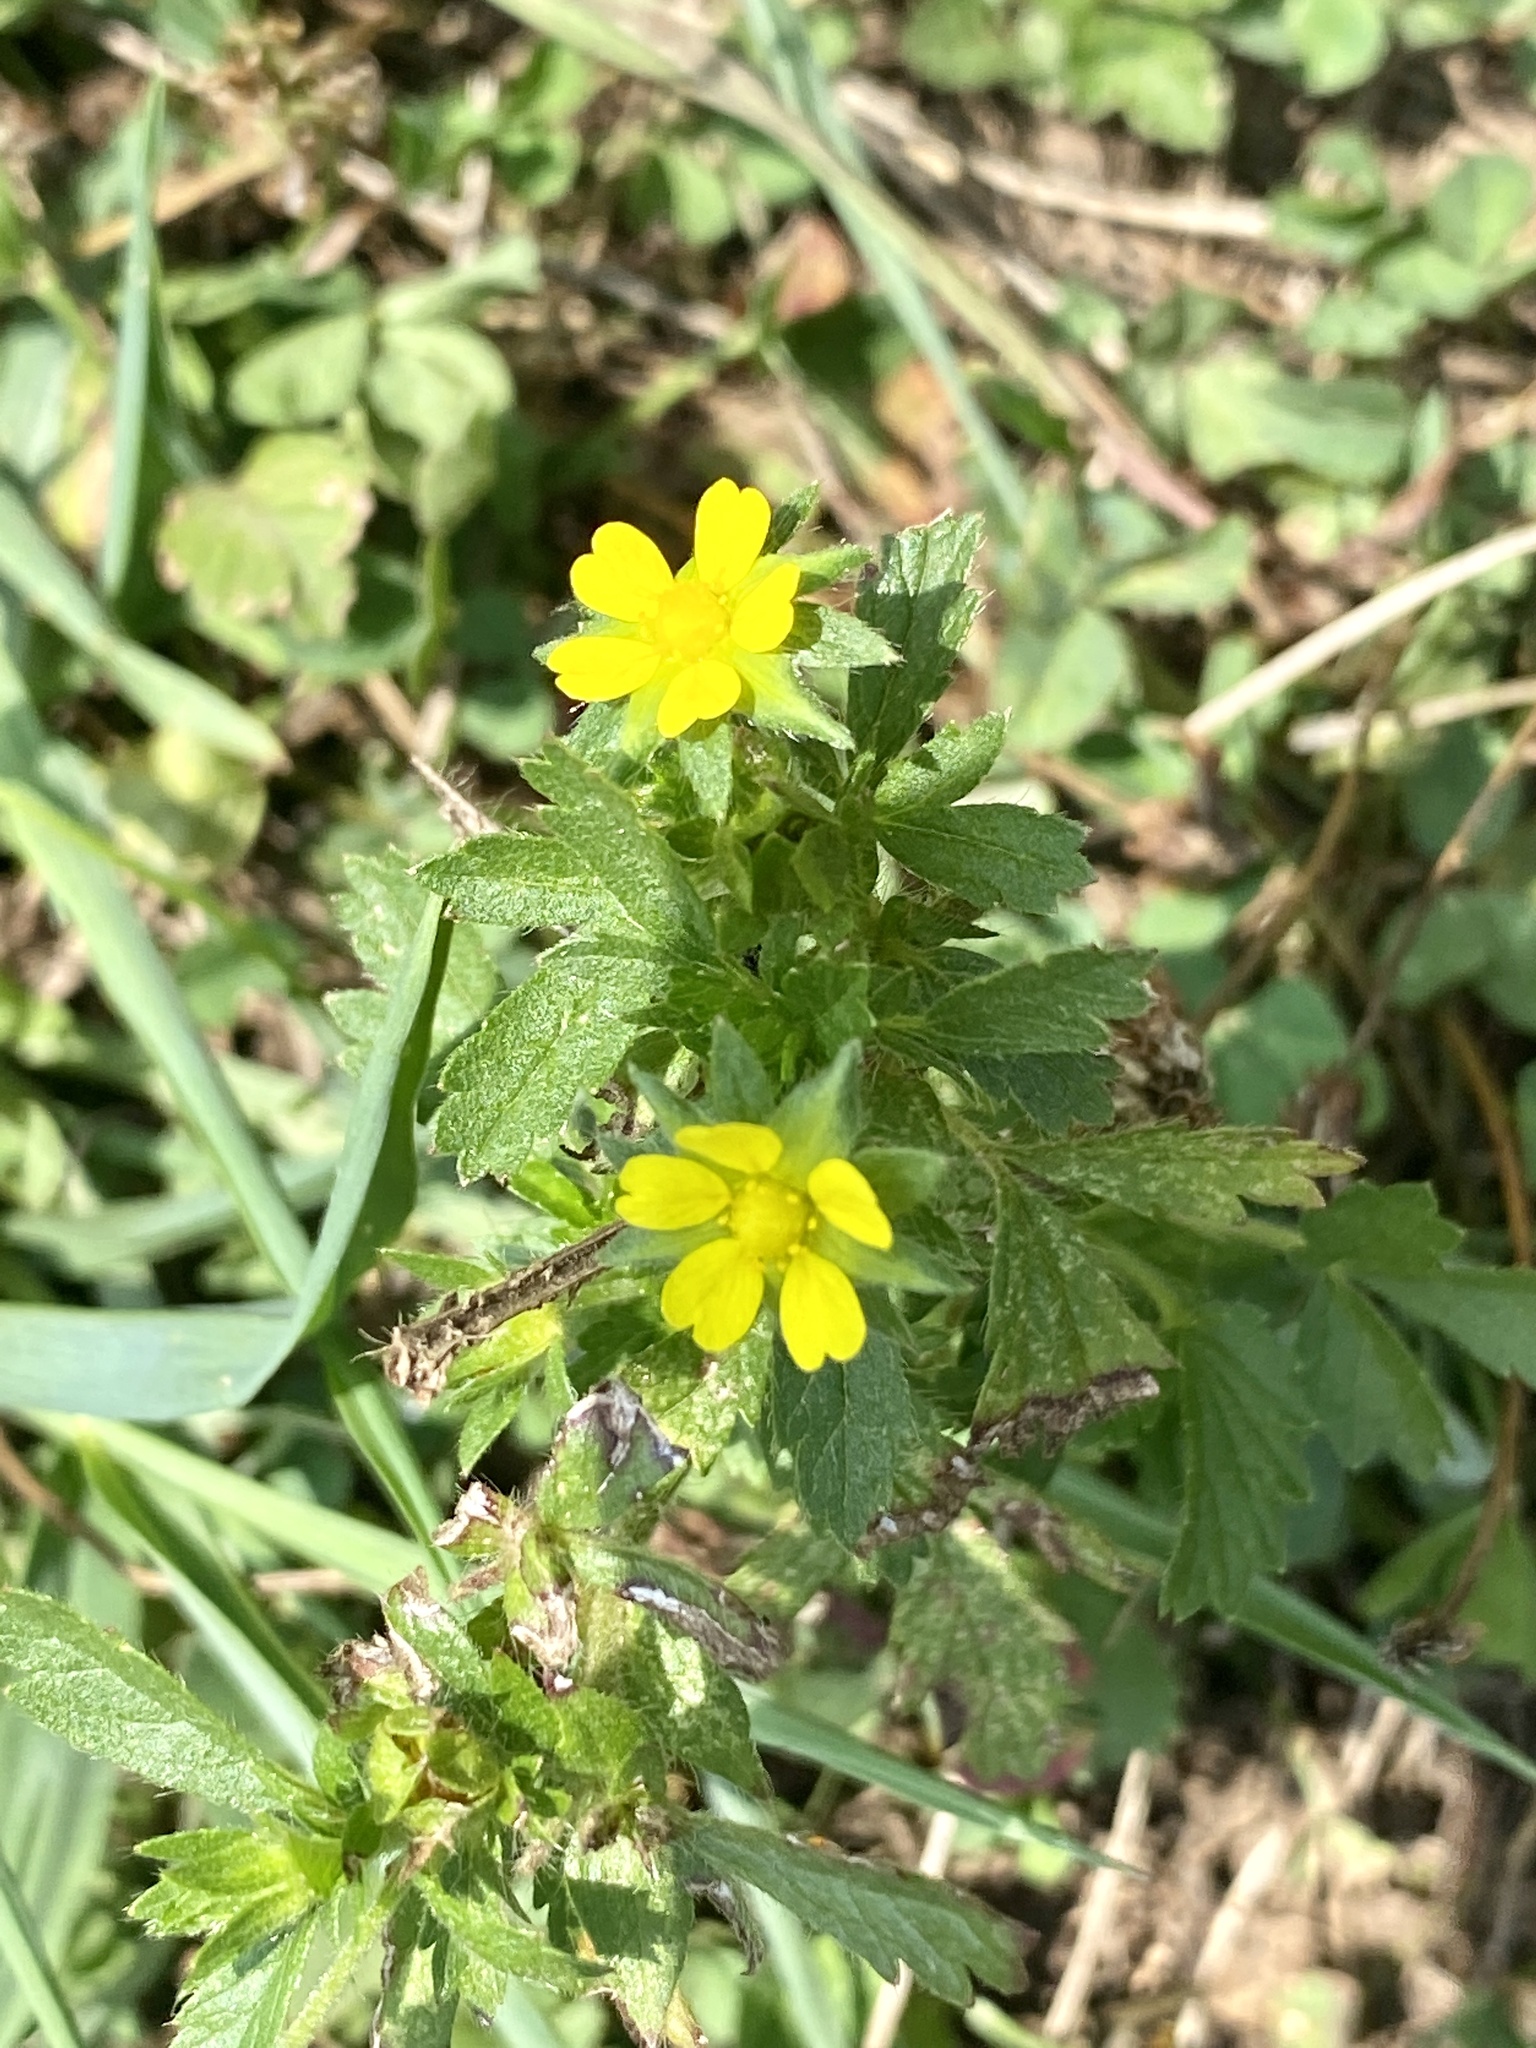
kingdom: Plantae
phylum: Tracheophyta
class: Magnoliopsida
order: Rosales
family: Rosaceae
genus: Potentilla
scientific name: Potentilla norvegica
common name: Ternate-leaved cinquefoil
